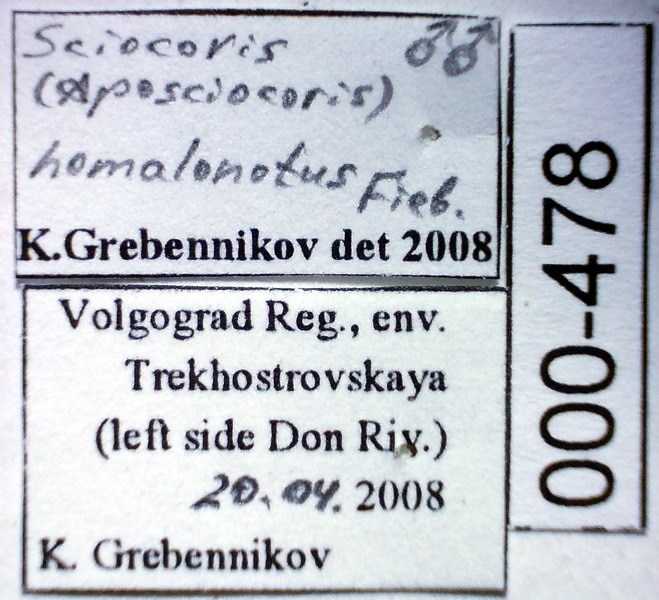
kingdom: Animalia
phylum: Arthropoda
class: Insecta
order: Hemiptera
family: Pentatomidae
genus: Sciocoris
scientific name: Sciocoris homalonotus
